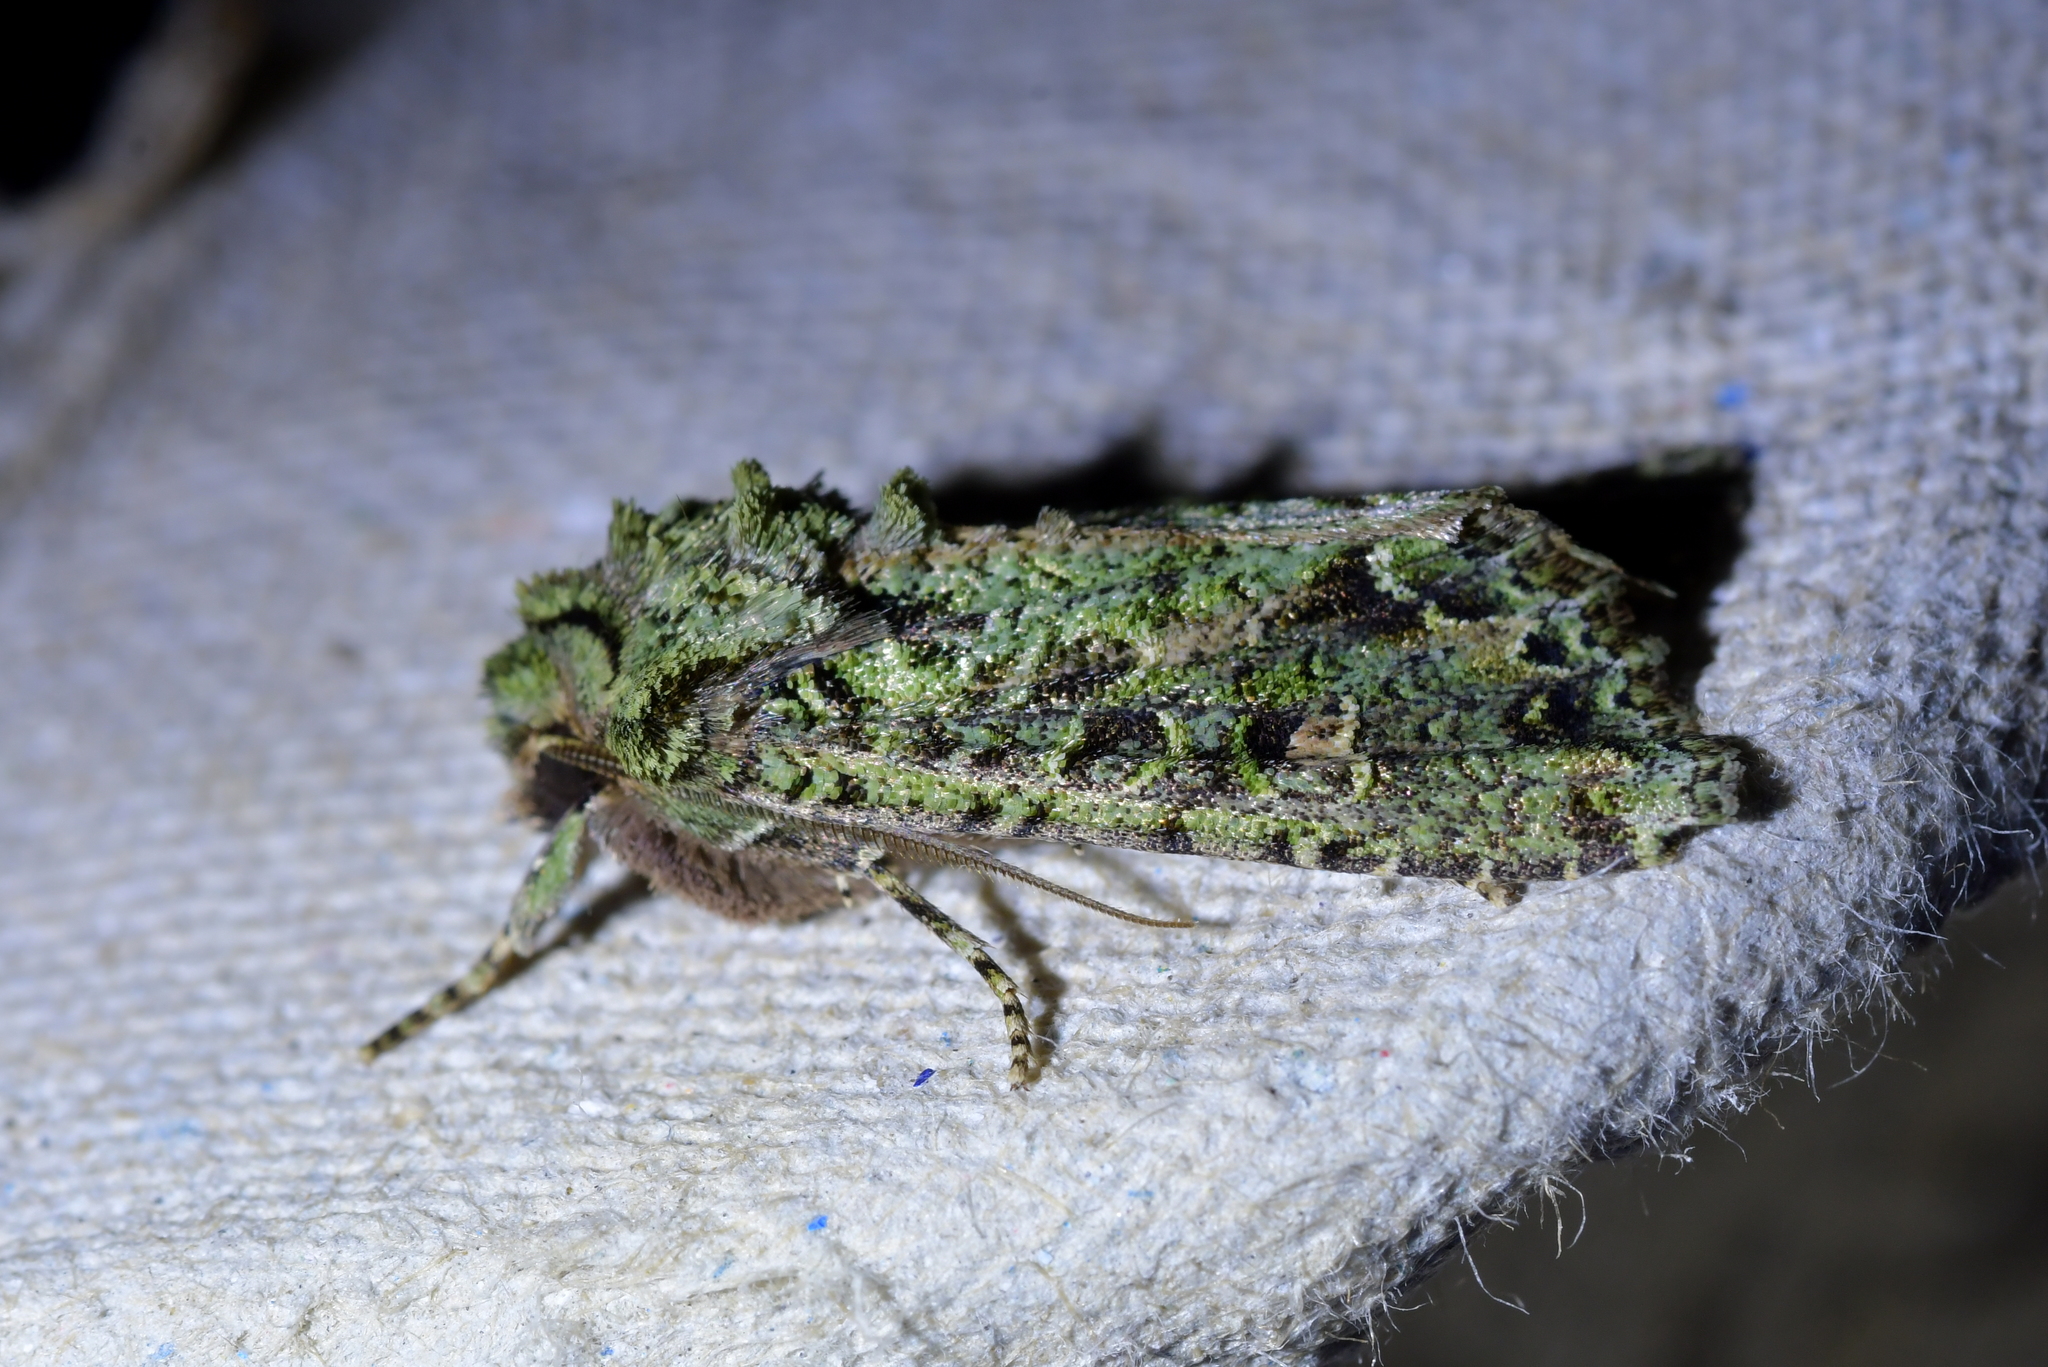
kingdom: Animalia
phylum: Arthropoda
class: Insecta
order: Lepidoptera
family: Noctuidae
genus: Ichneutica
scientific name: Ichneutica
